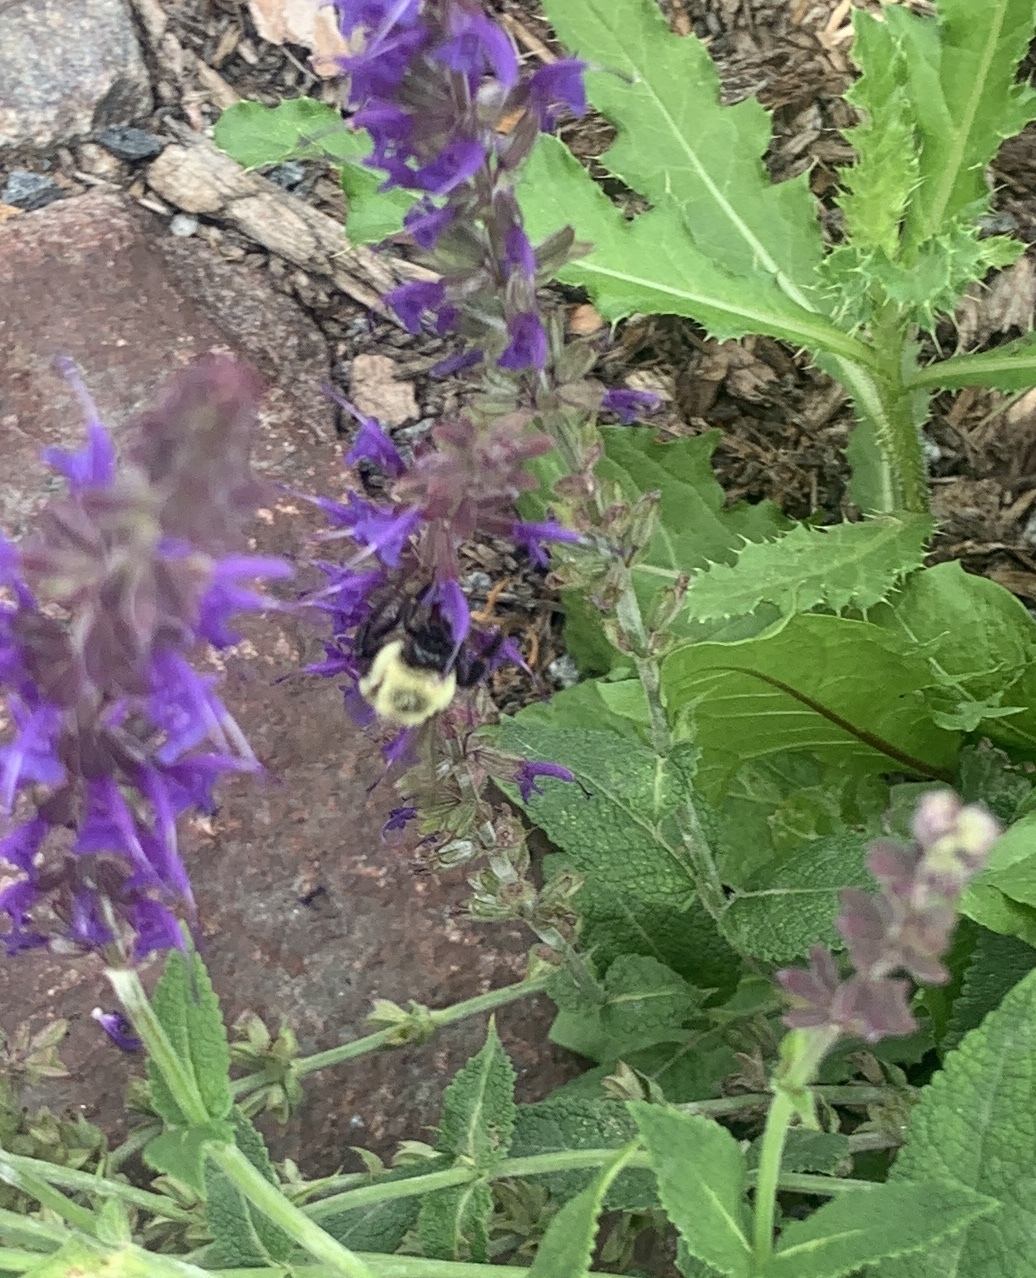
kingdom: Animalia
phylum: Arthropoda
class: Insecta
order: Hymenoptera
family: Apidae
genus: Bombus
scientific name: Bombus impatiens
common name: Common eastern bumble bee
